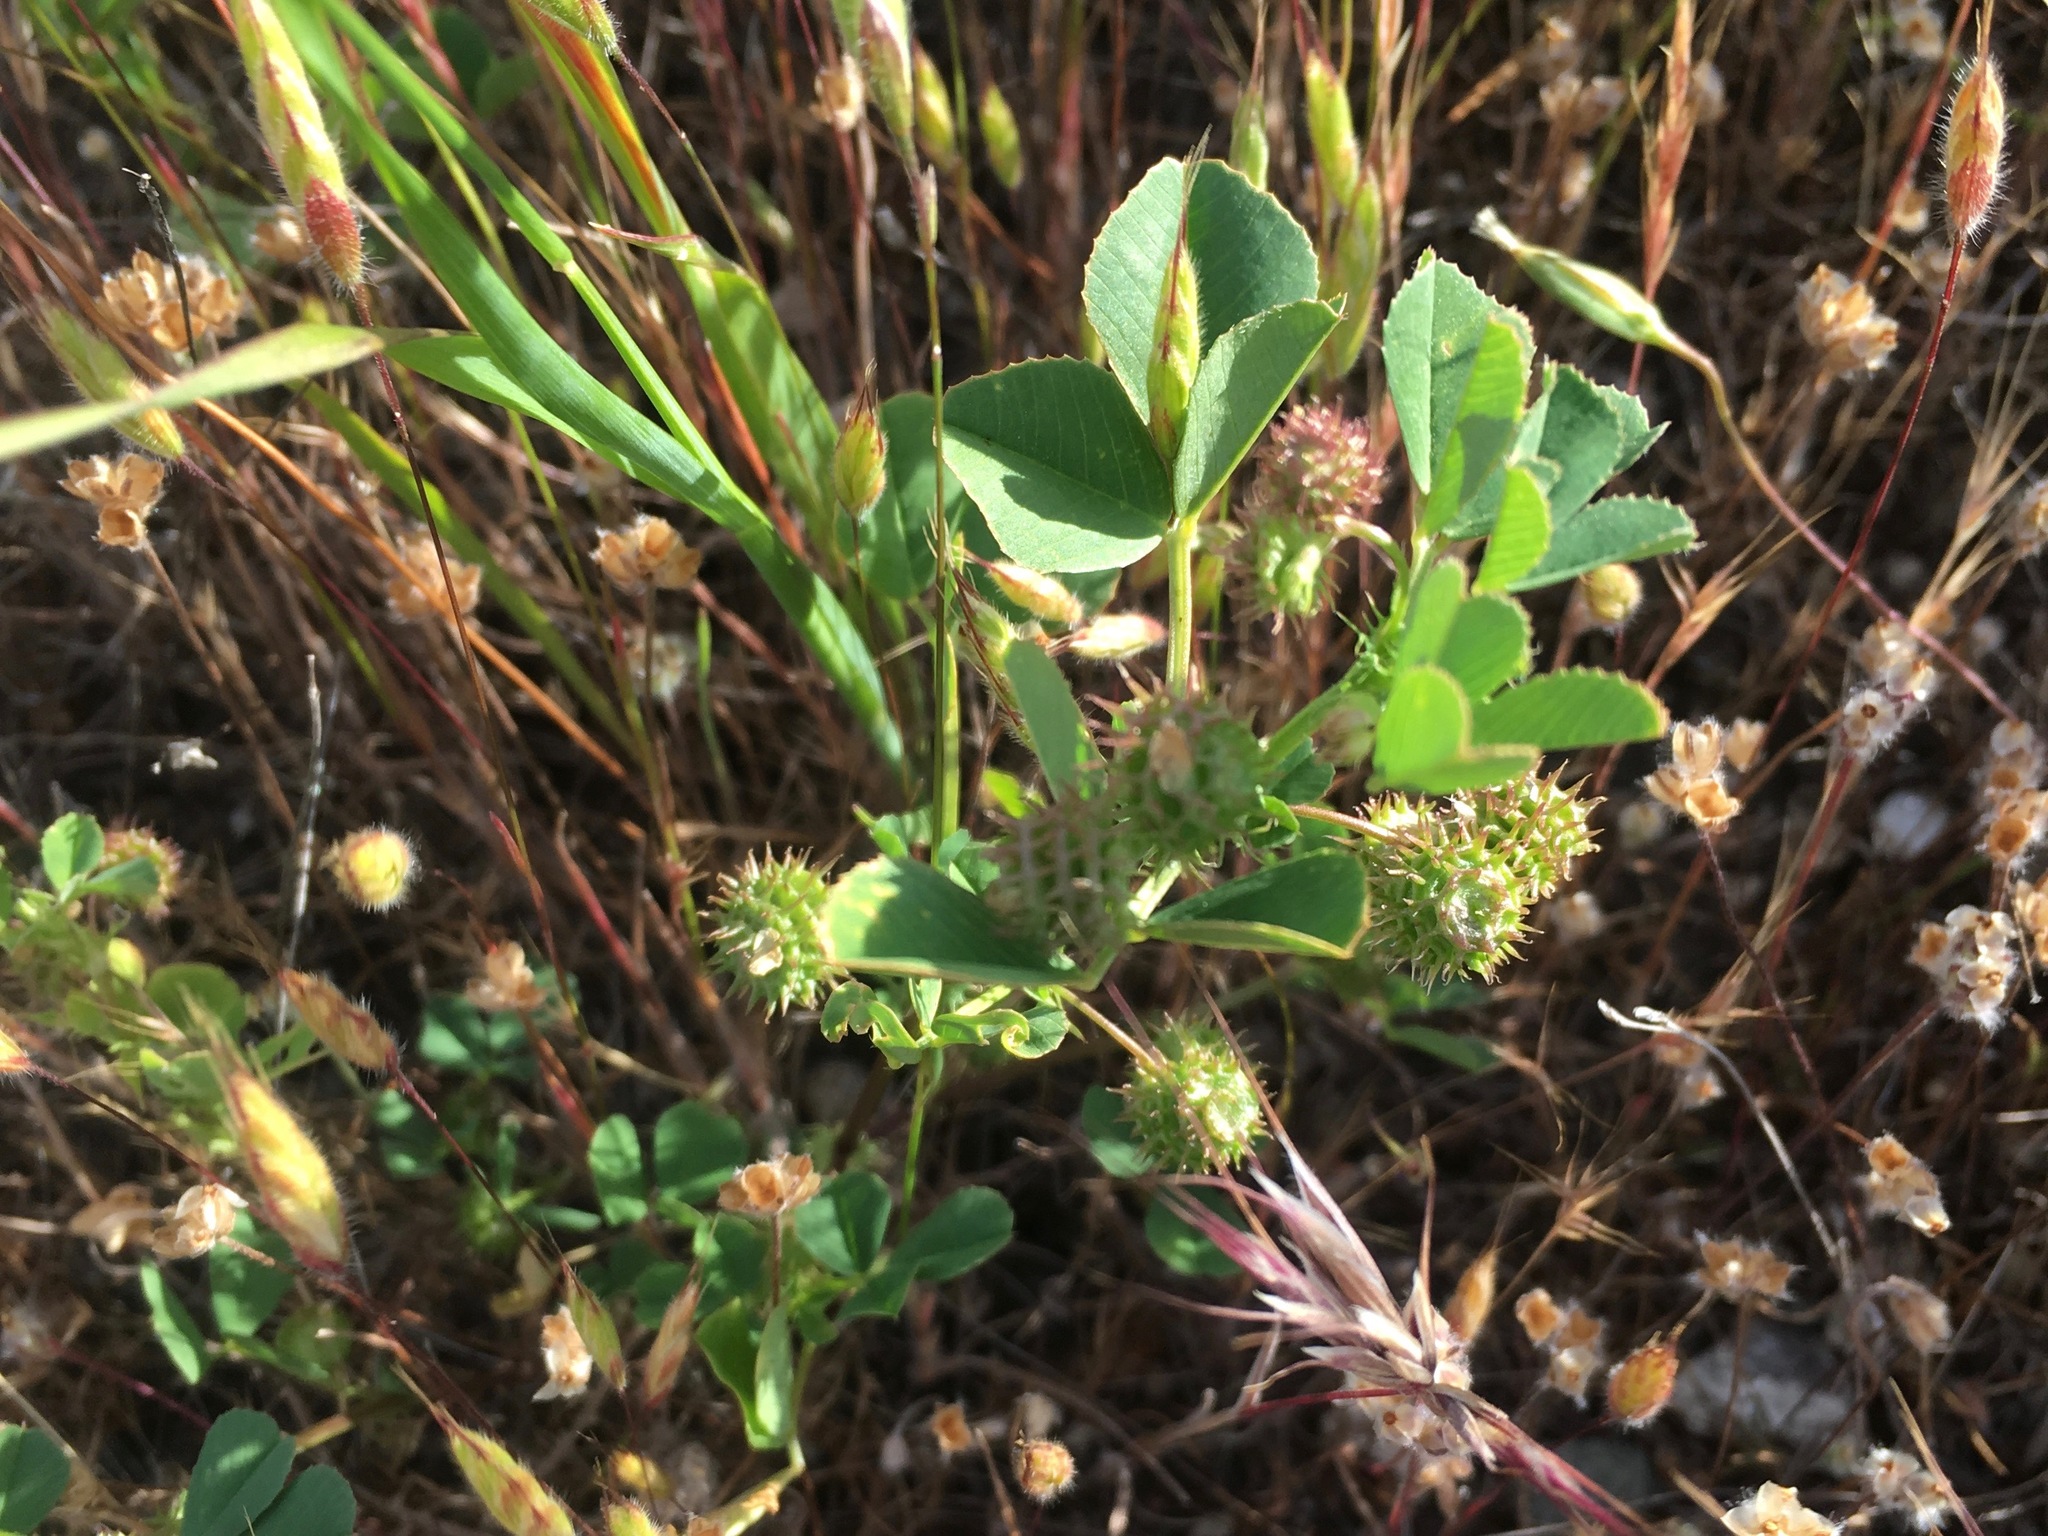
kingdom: Plantae
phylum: Tracheophyta
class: Magnoliopsida
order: Fabales
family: Fabaceae
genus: Medicago
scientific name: Medicago polymorpha
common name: Burclover
